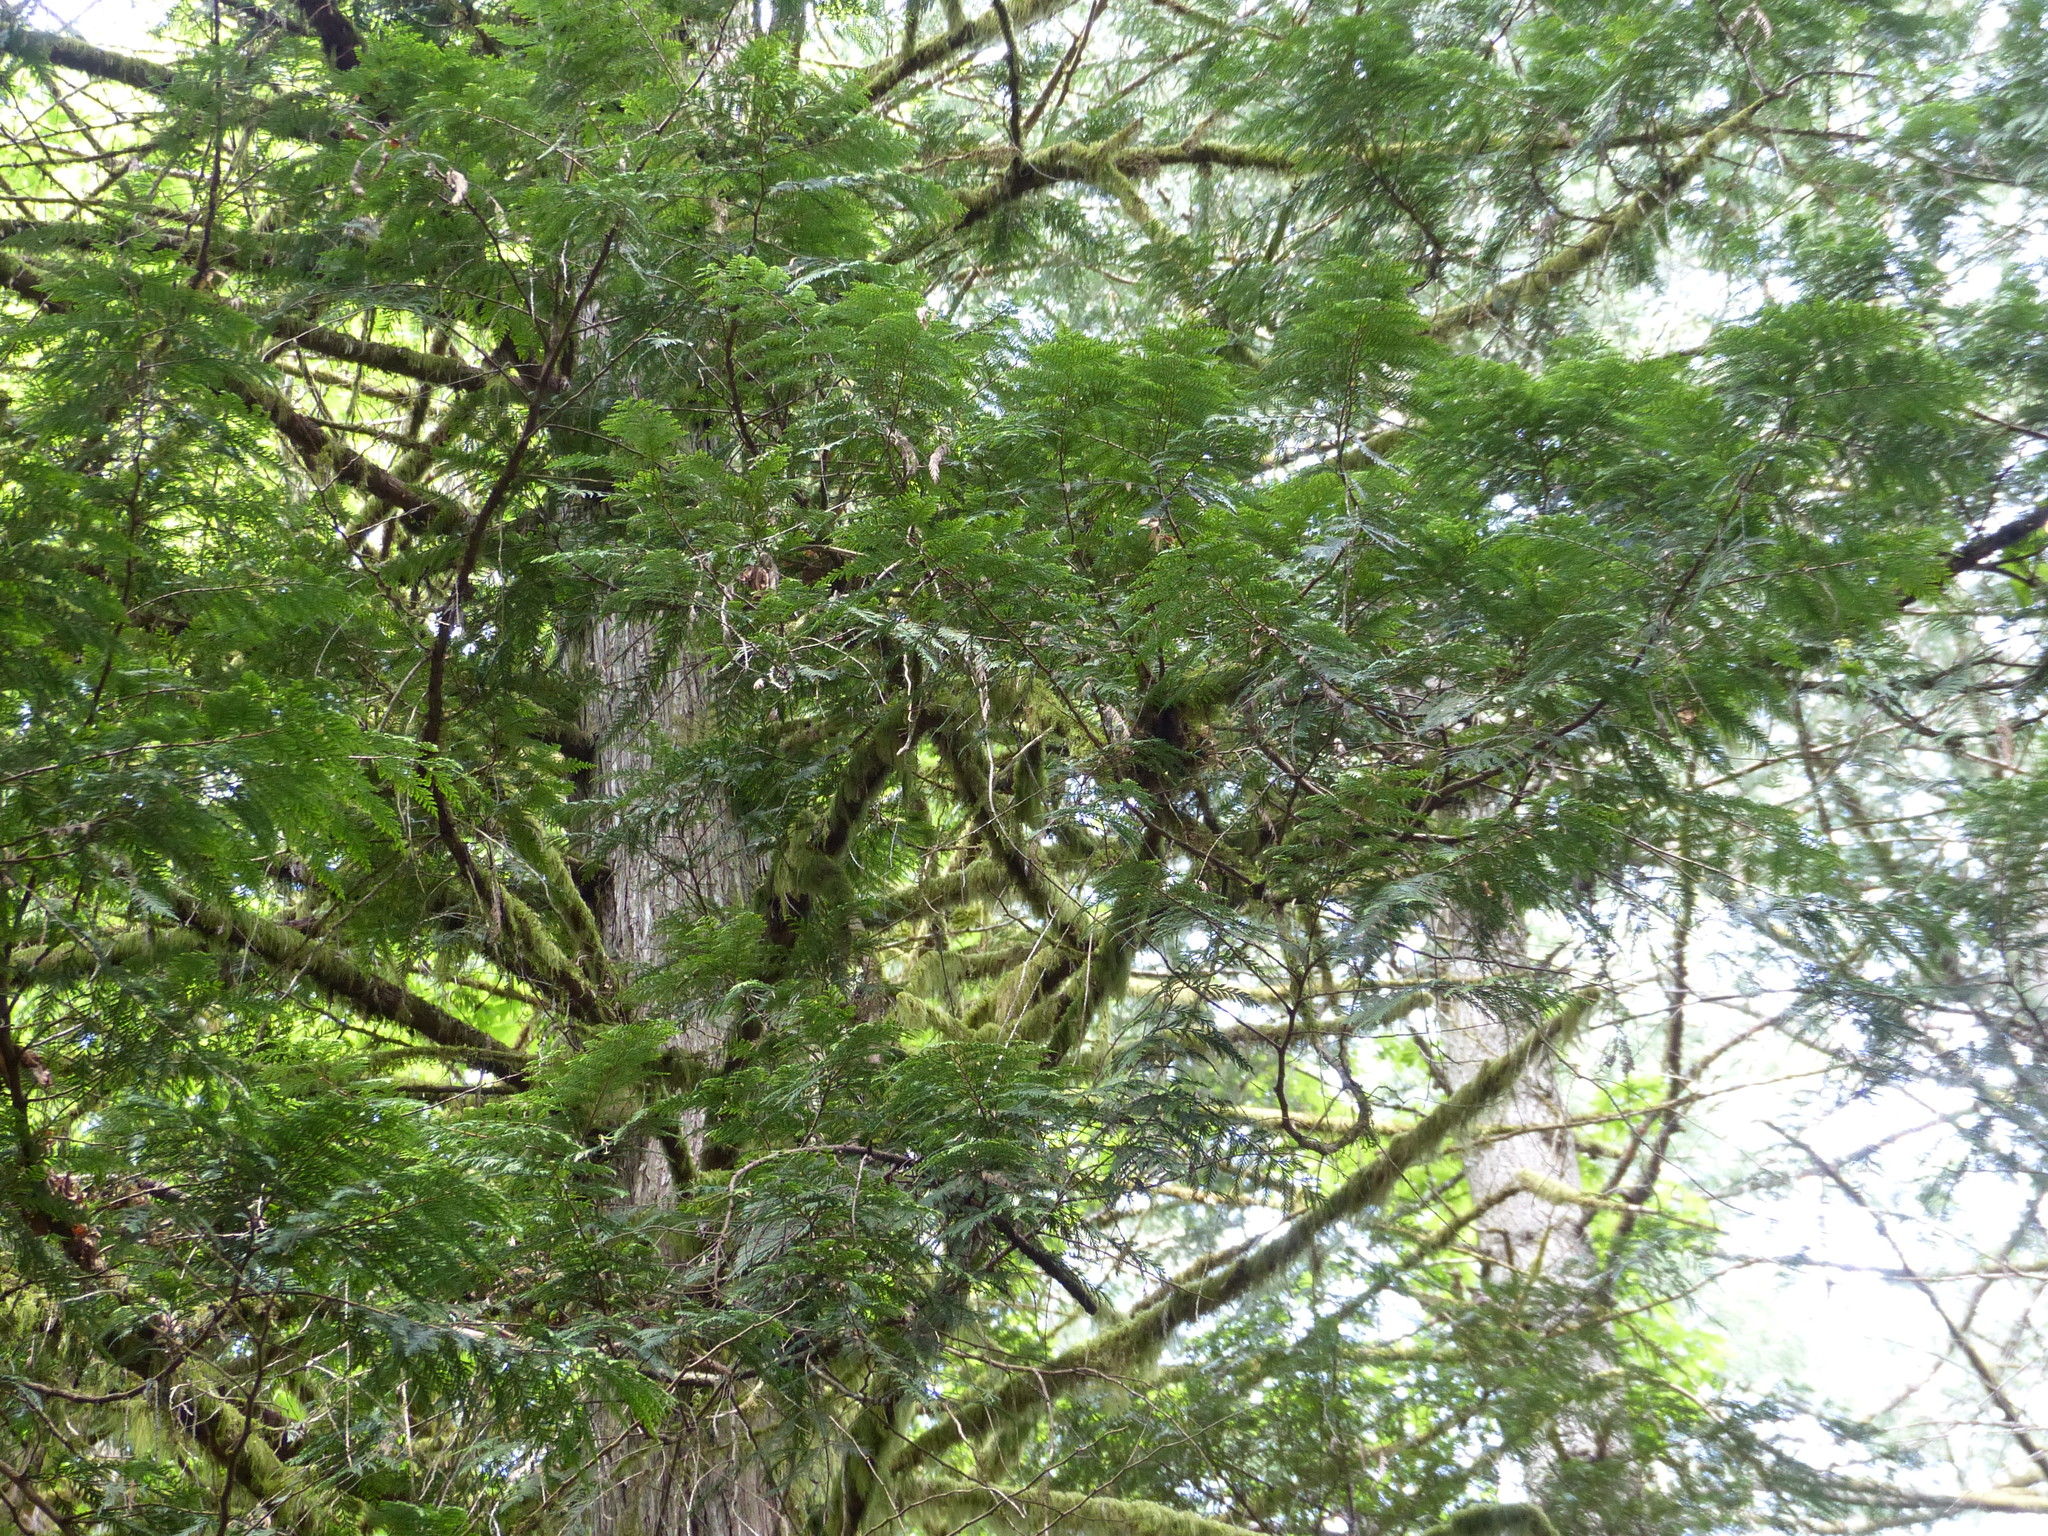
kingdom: Plantae
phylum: Tracheophyta
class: Pinopsida
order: Pinales
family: Cupressaceae
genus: Thuja
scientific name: Thuja plicata
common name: Western red-cedar
